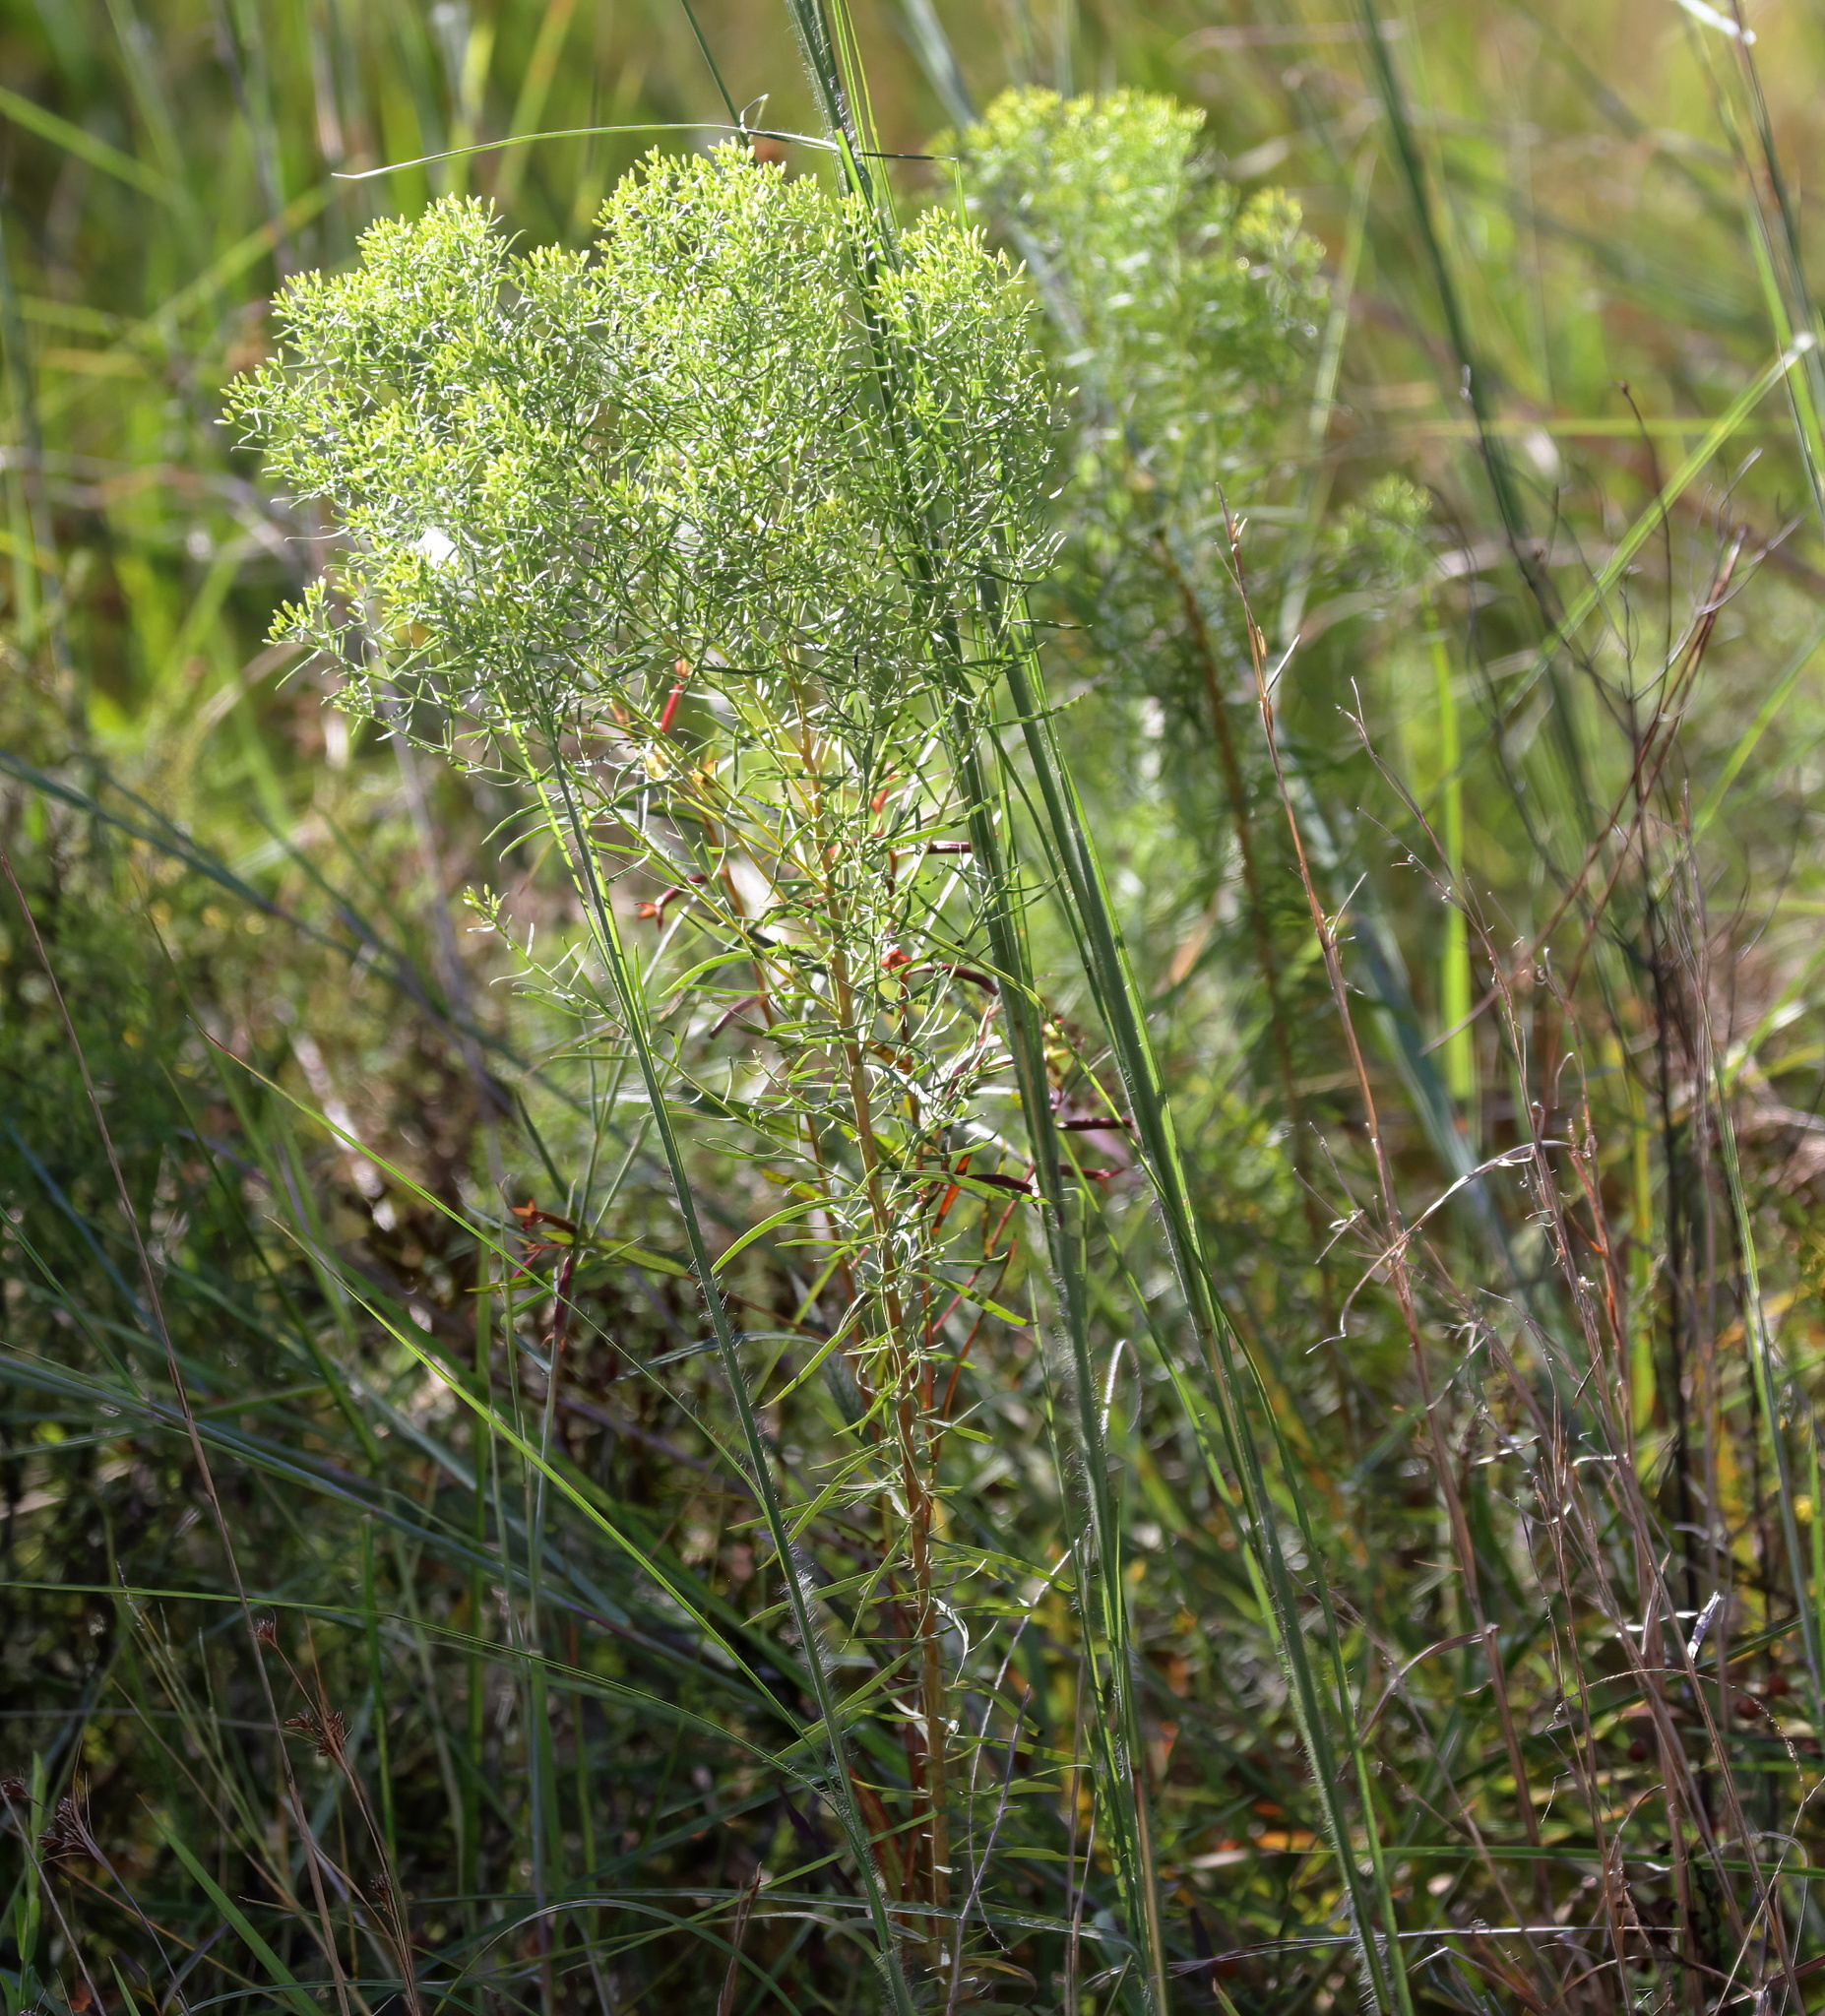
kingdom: Plantae
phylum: Tracheophyta
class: Magnoliopsida
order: Asterales
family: Asteraceae
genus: Euthamia
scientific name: Euthamia caroliniana
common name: Coastal plain goldentop
